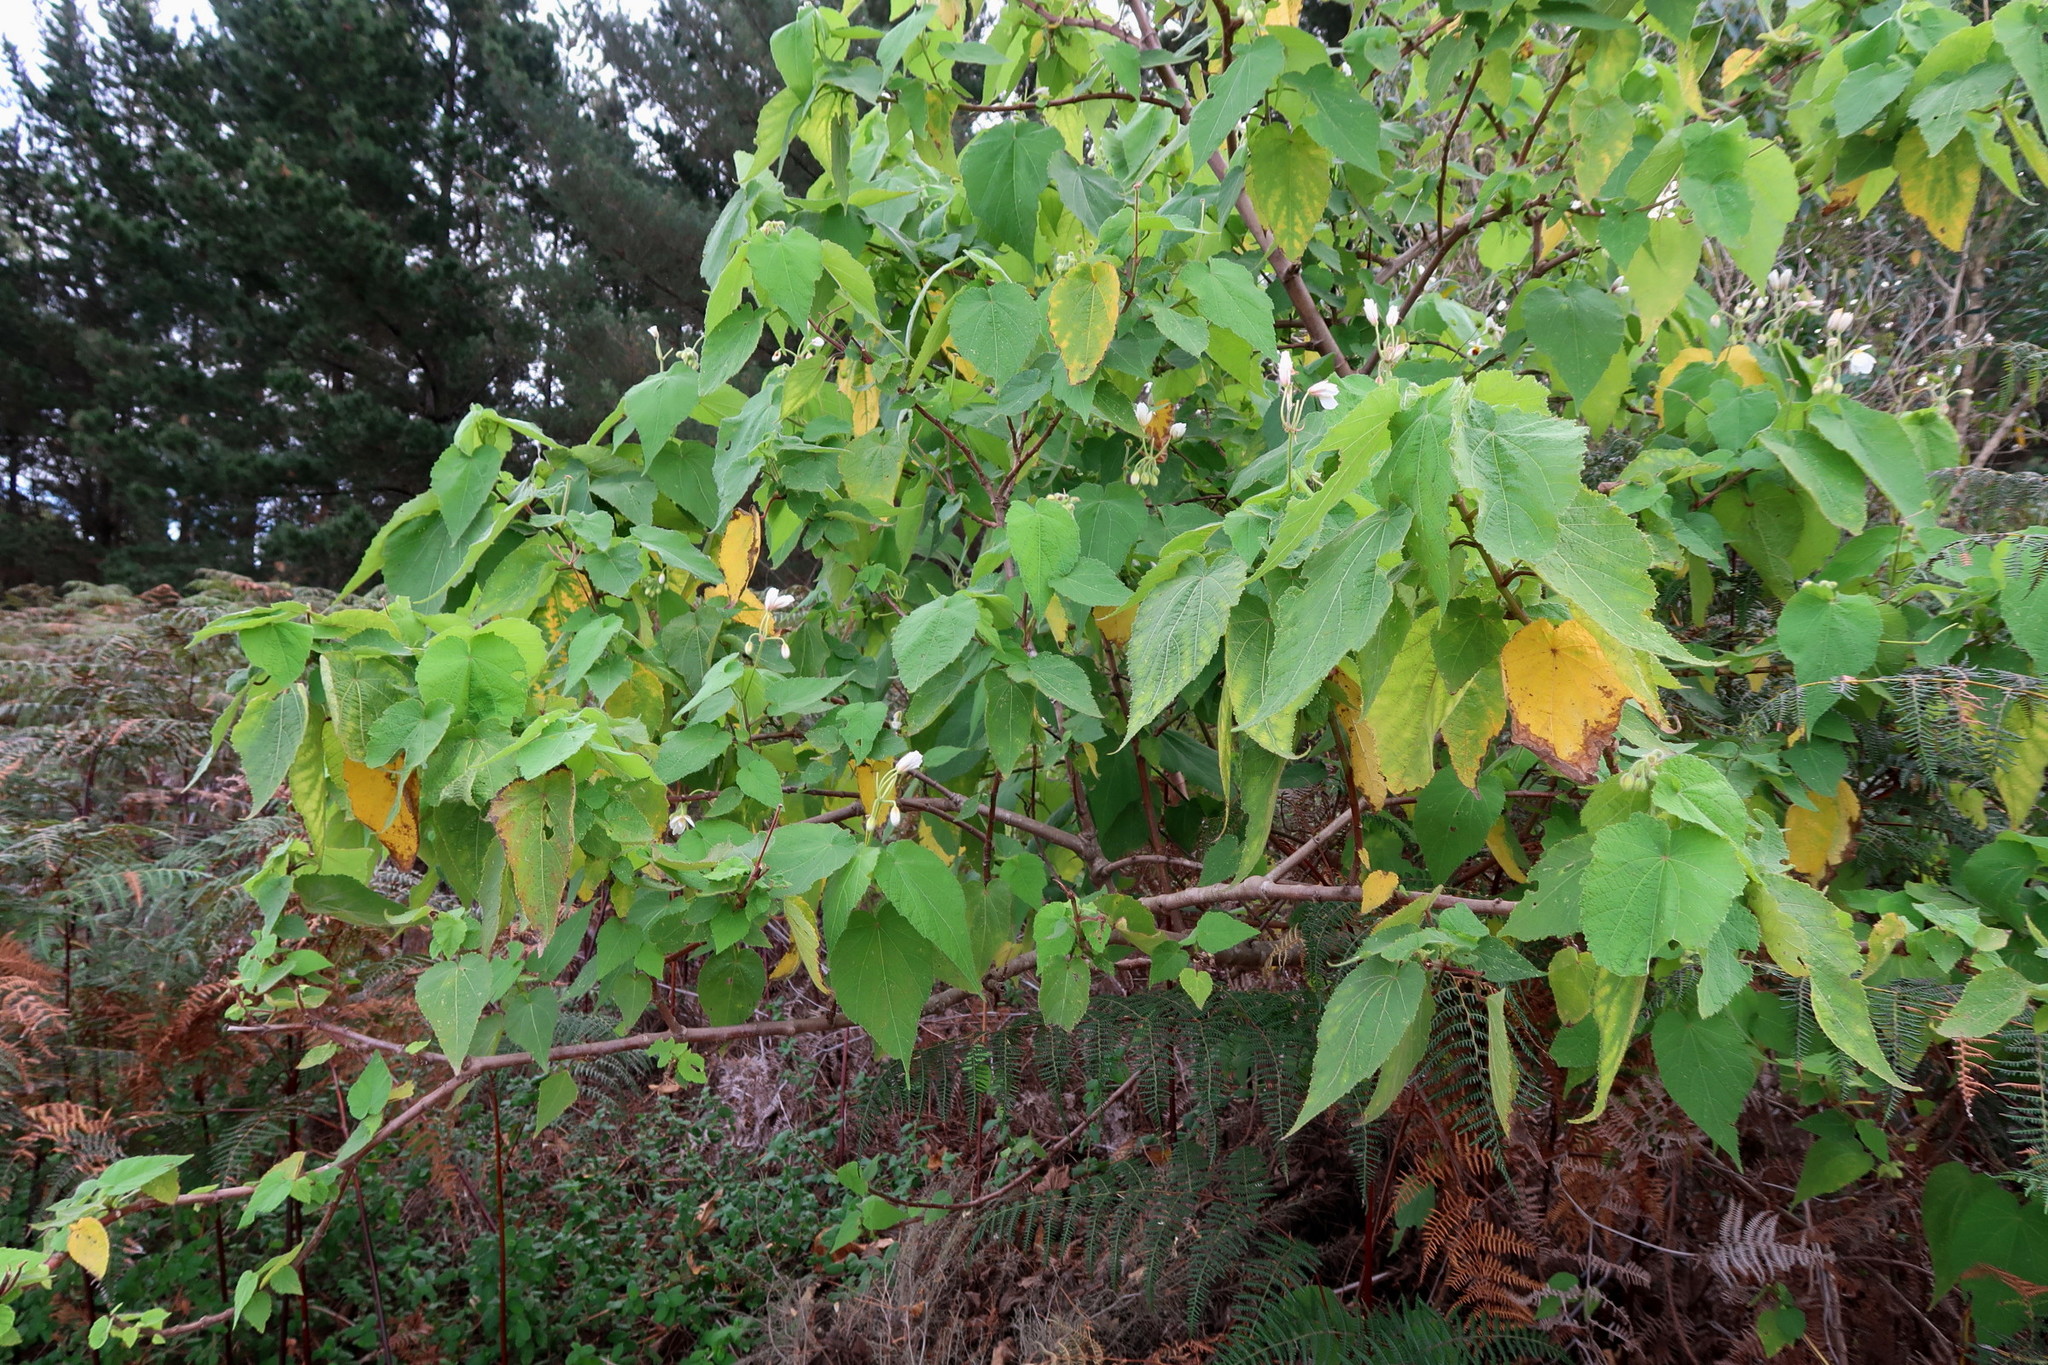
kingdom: Plantae
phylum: Tracheophyta
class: Magnoliopsida
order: Malvales
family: Malvaceae
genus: Sparrmannia
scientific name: Sparrmannia africana
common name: African-hemp
